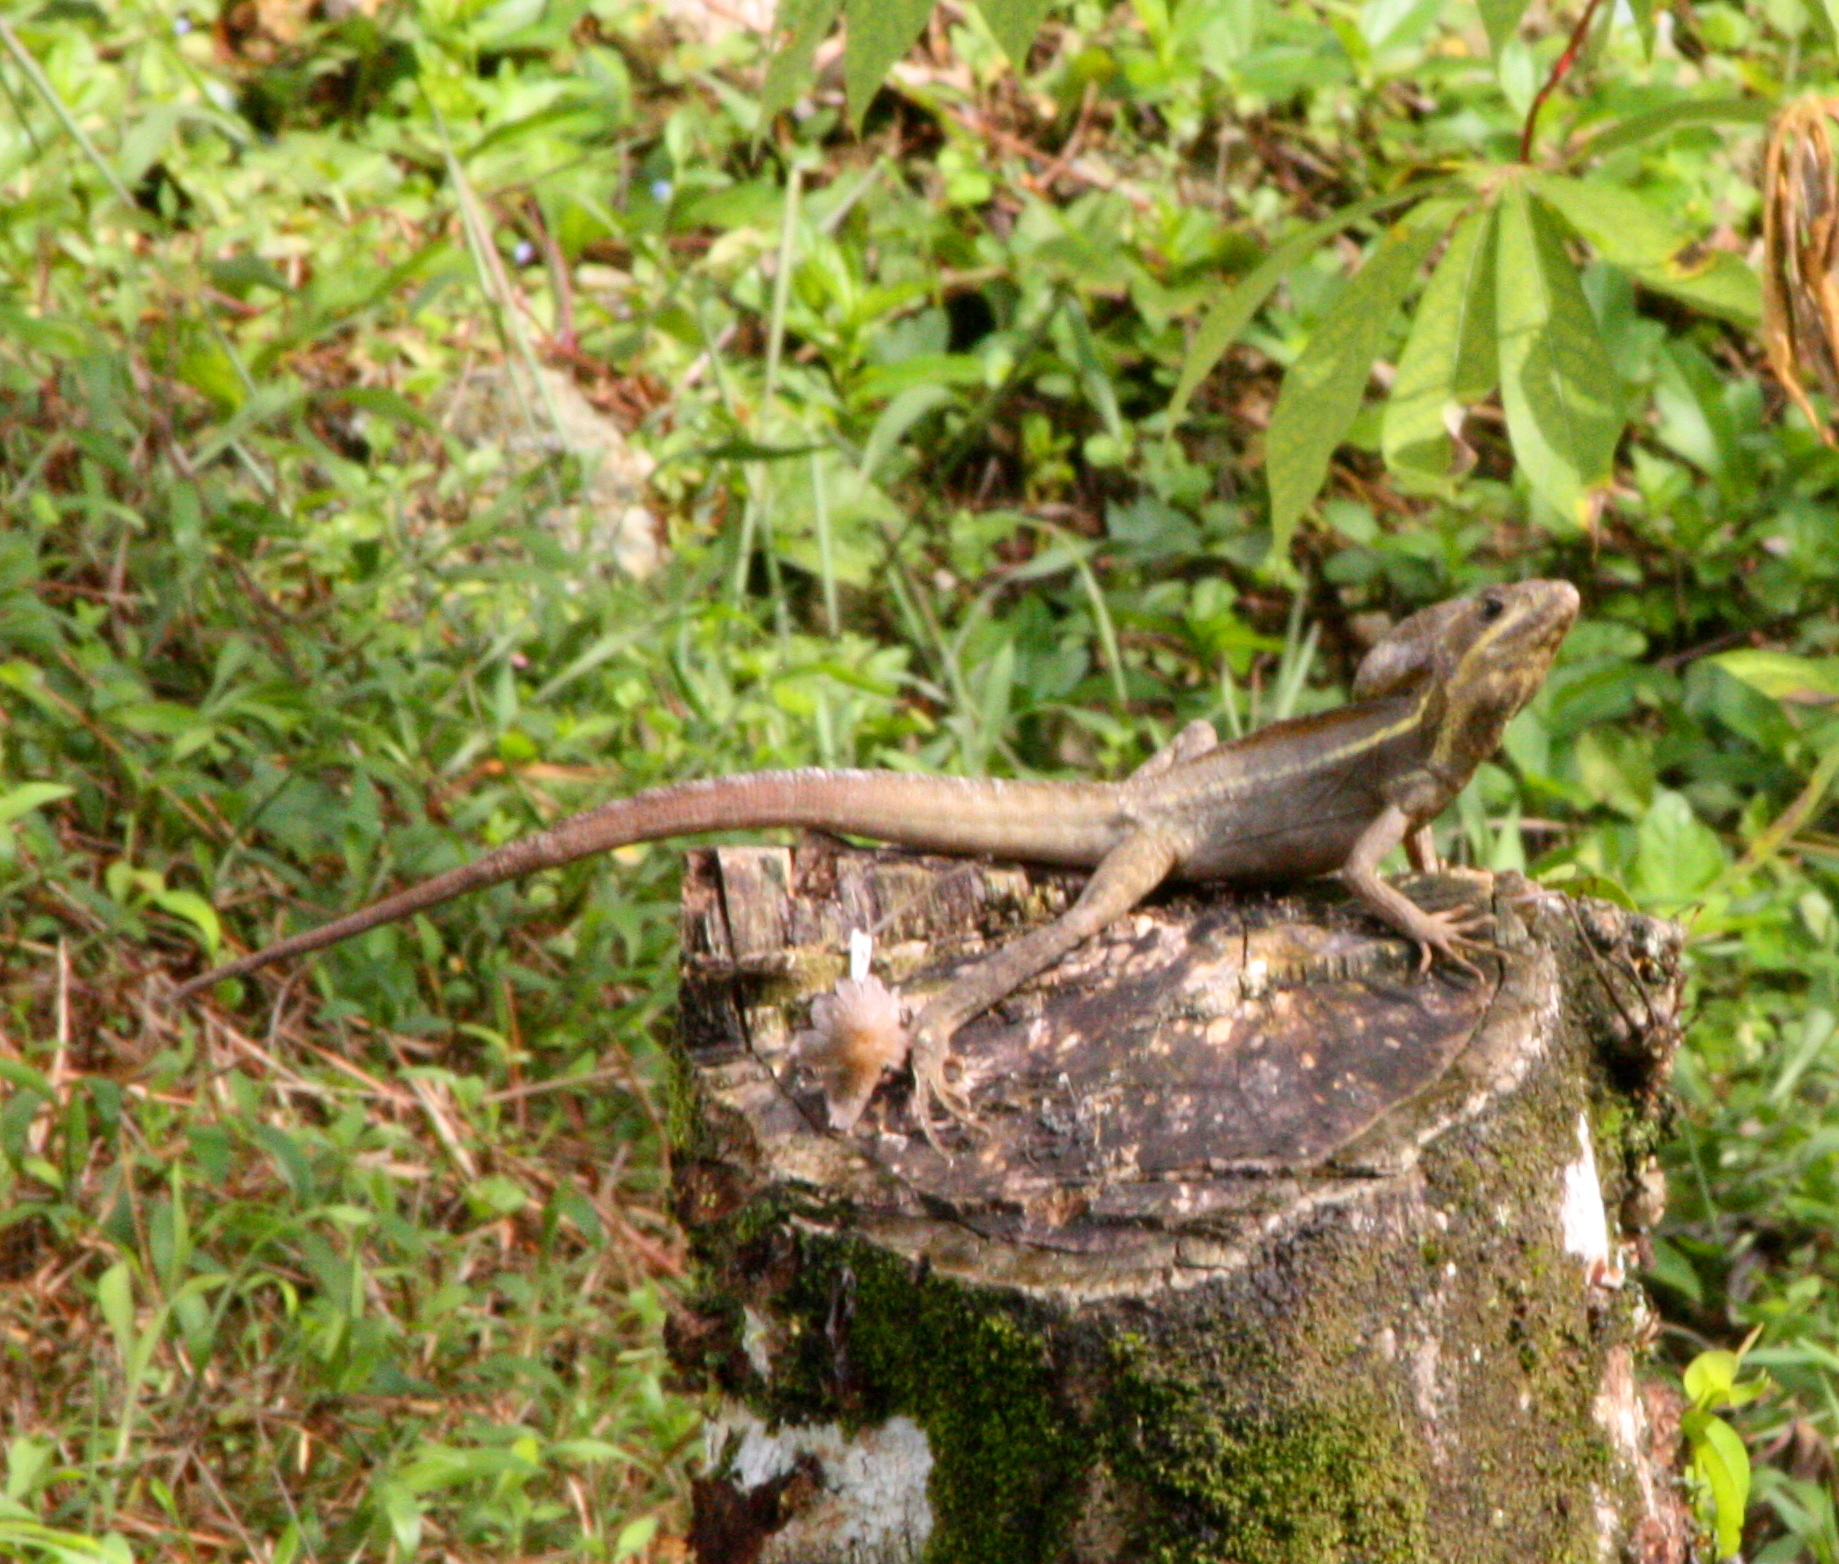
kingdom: Animalia
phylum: Chordata
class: Squamata
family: Corytophanidae
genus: Basiliscus
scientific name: Basiliscus vittatus
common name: Brown basilisk
